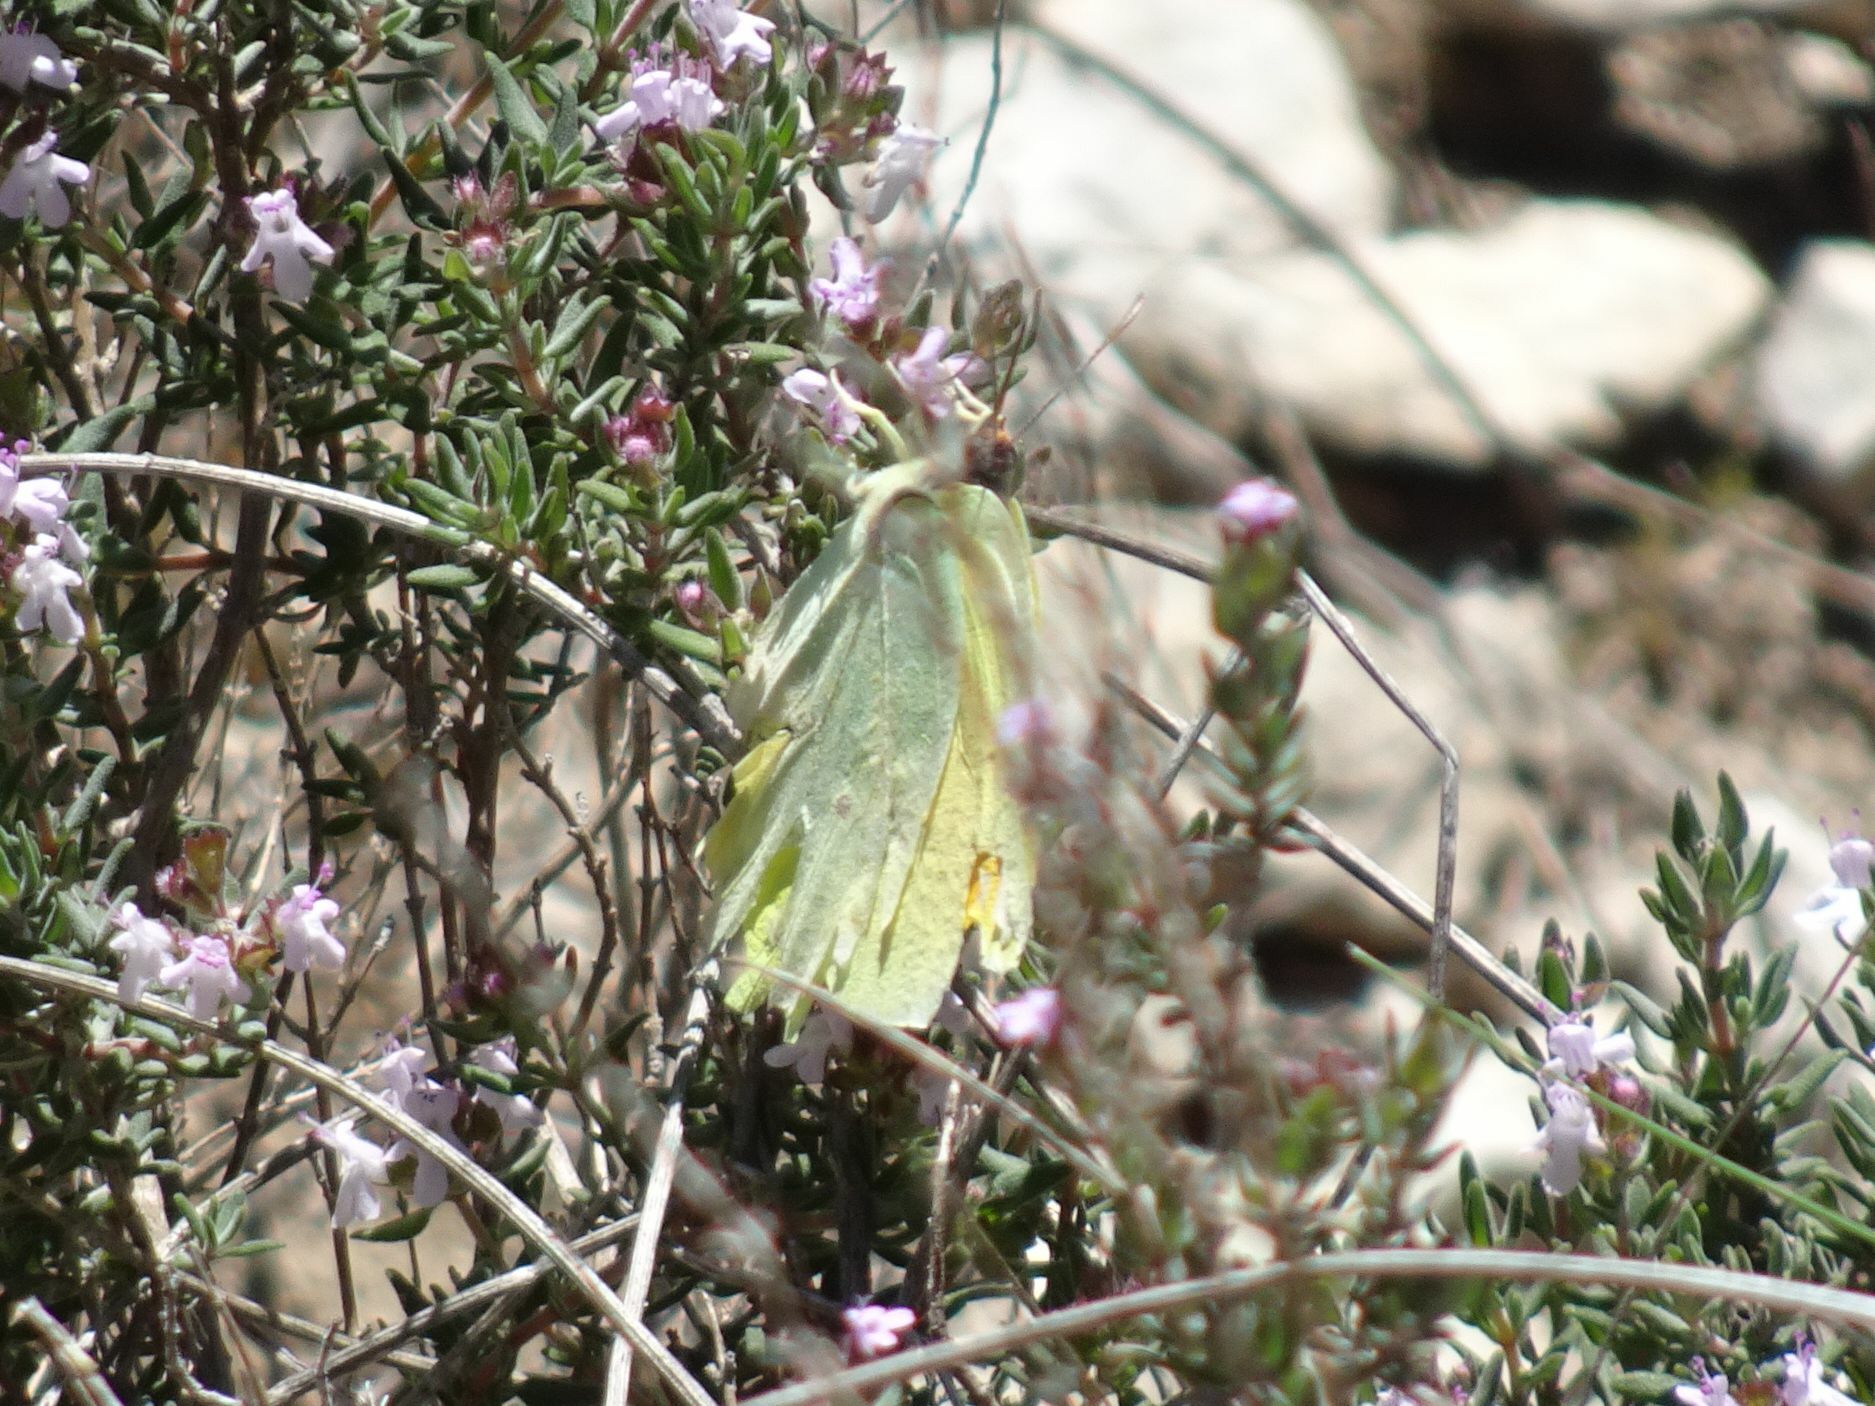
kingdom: Animalia
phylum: Arthropoda
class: Insecta
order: Lepidoptera
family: Pieridae
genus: Gonepteryx
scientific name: Gonepteryx cleopatra
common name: Cleopatra
